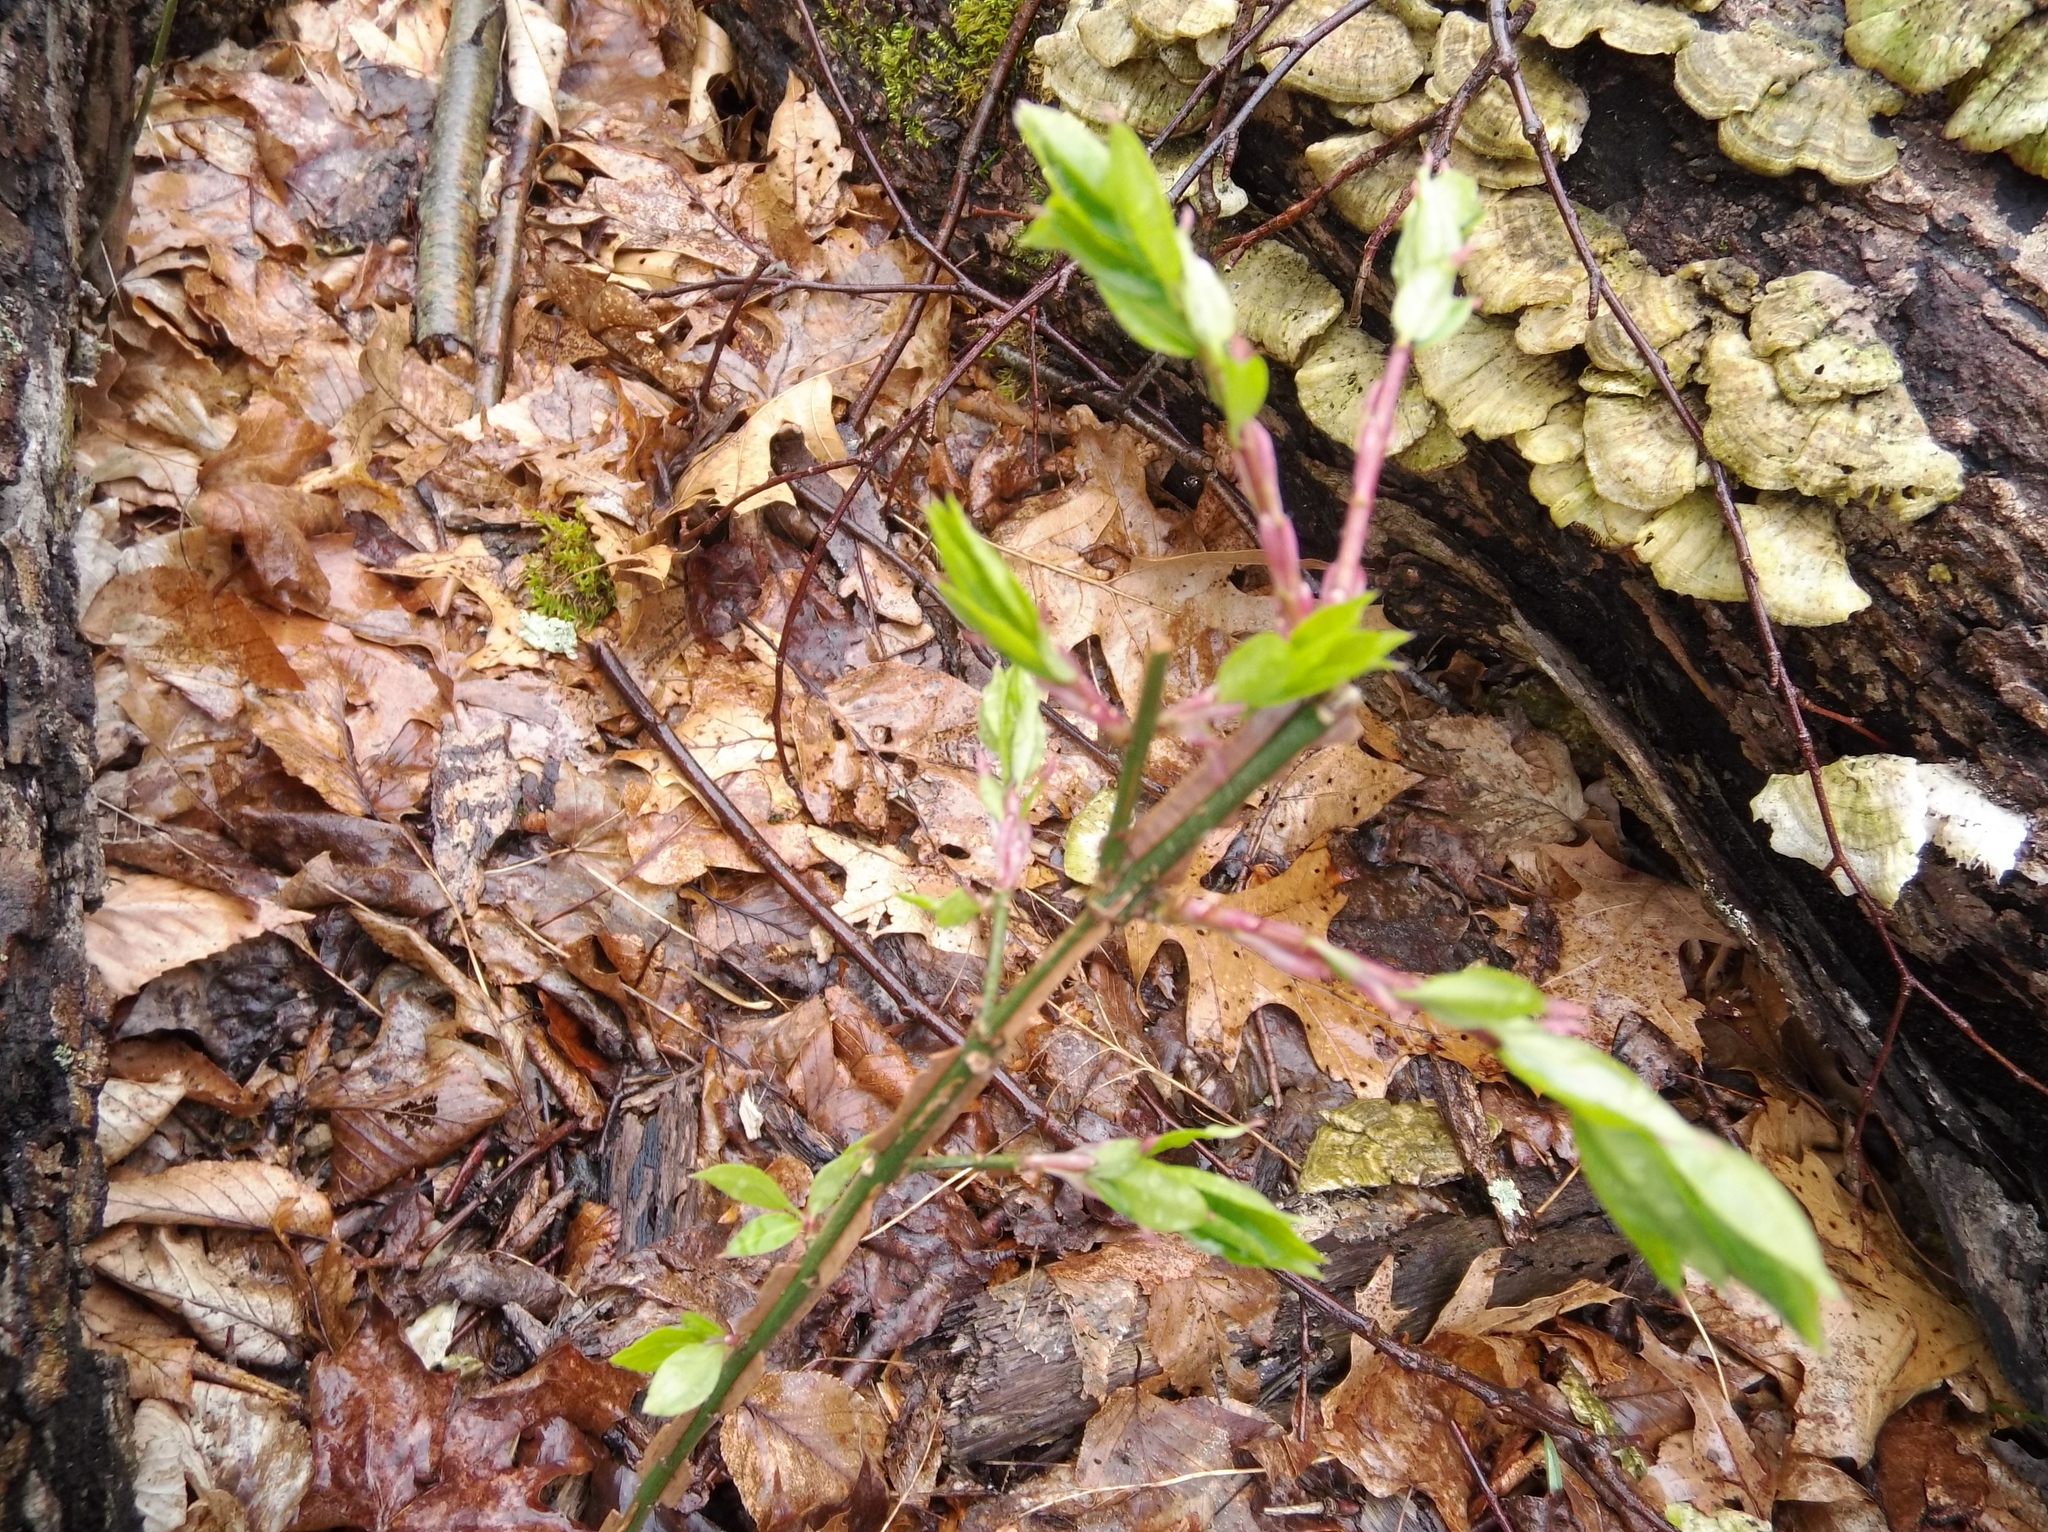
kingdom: Plantae
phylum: Tracheophyta
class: Magnoliopsida
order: Celastrales
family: Celastraceae
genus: Euonymus
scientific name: Euonymus alatus
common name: Winged euonymus
